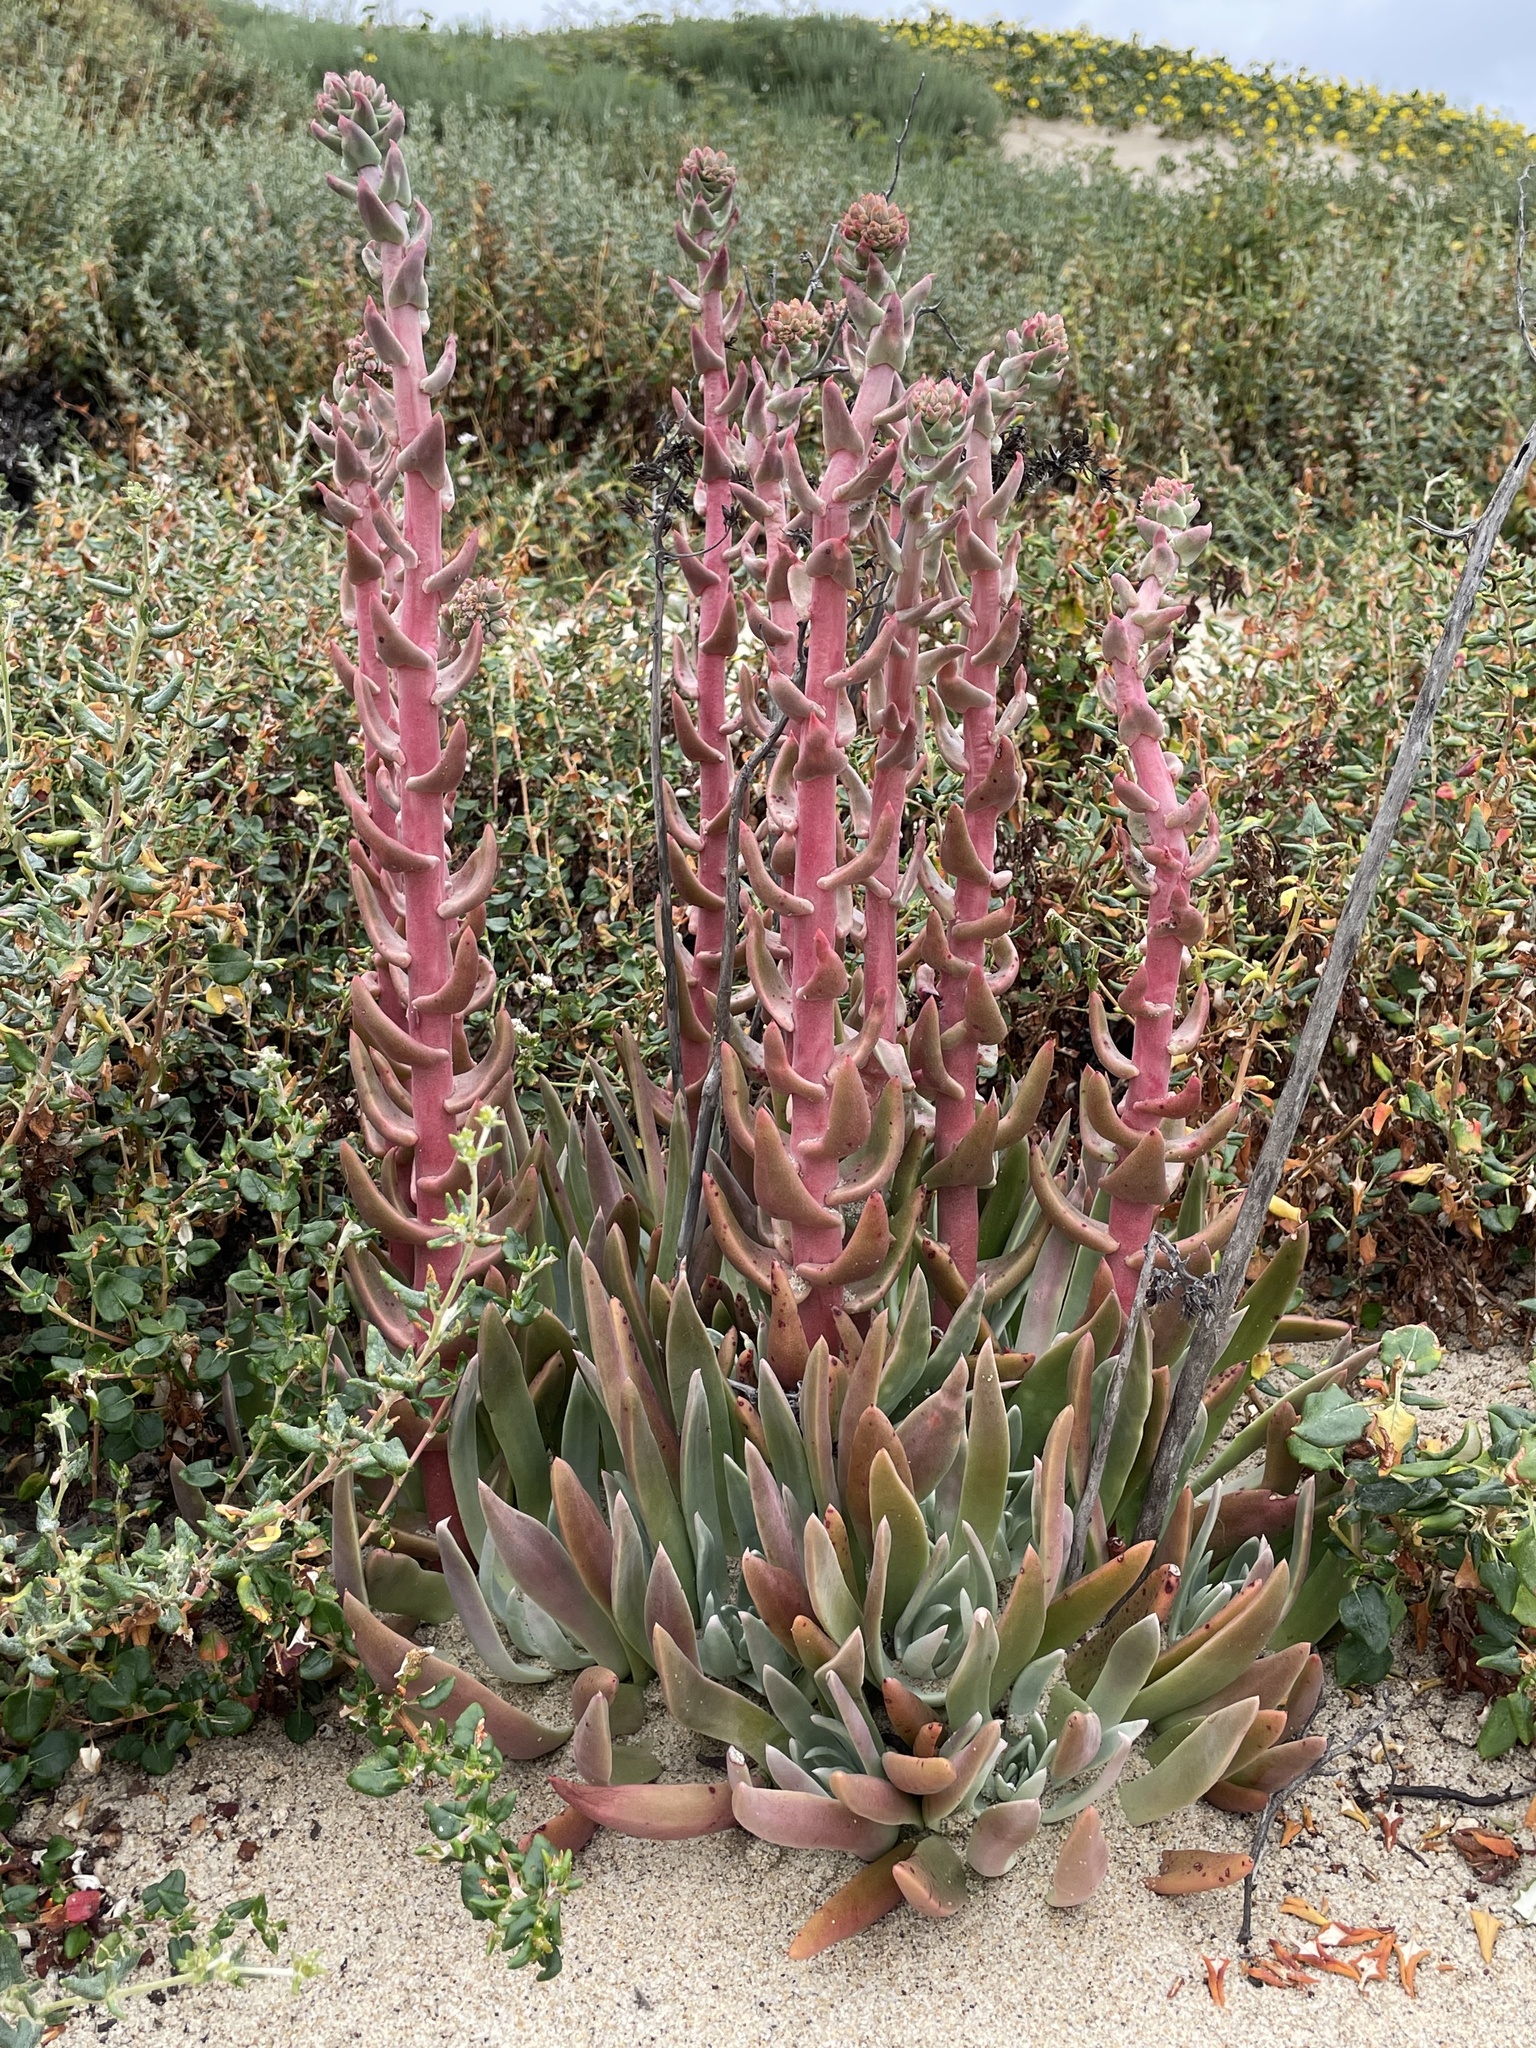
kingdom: Plantae
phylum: Tracheophyta
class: Magnoliopsida
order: Saxifragales
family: Crassulaceae
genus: Dudleya
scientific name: Dudleya caespitosa
